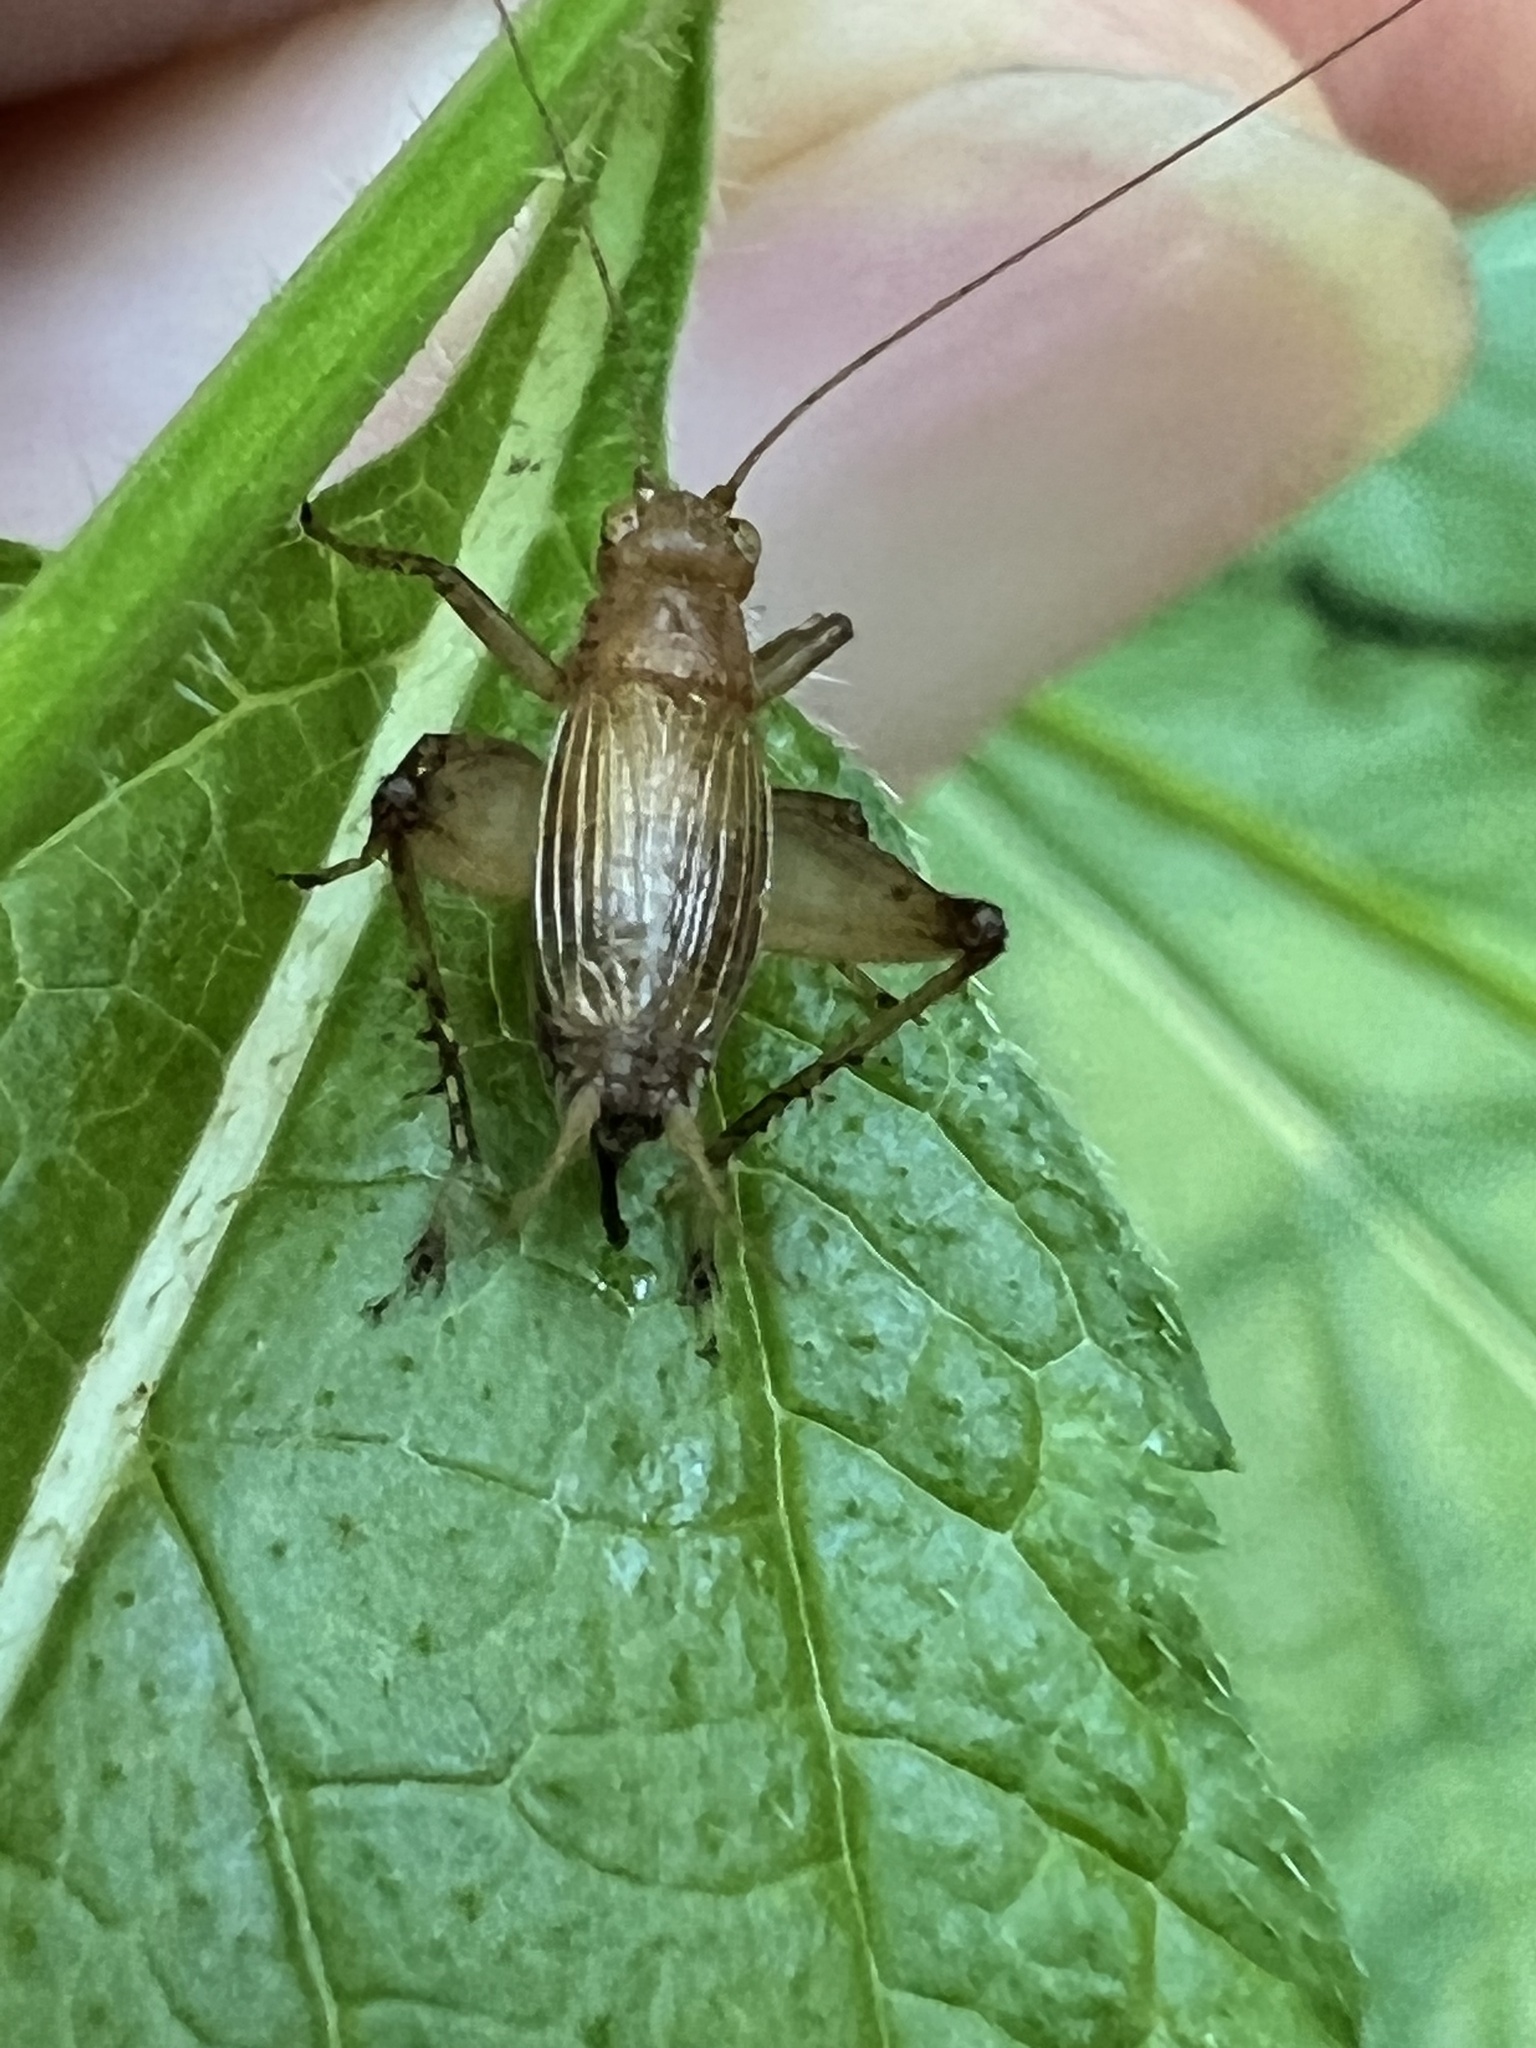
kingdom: Animalia
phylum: Arthropoda
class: Insecta
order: Orthoptera
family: Trigonidiidae
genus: Anaxipha
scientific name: Anaxipha vernalis
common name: Spring trig
